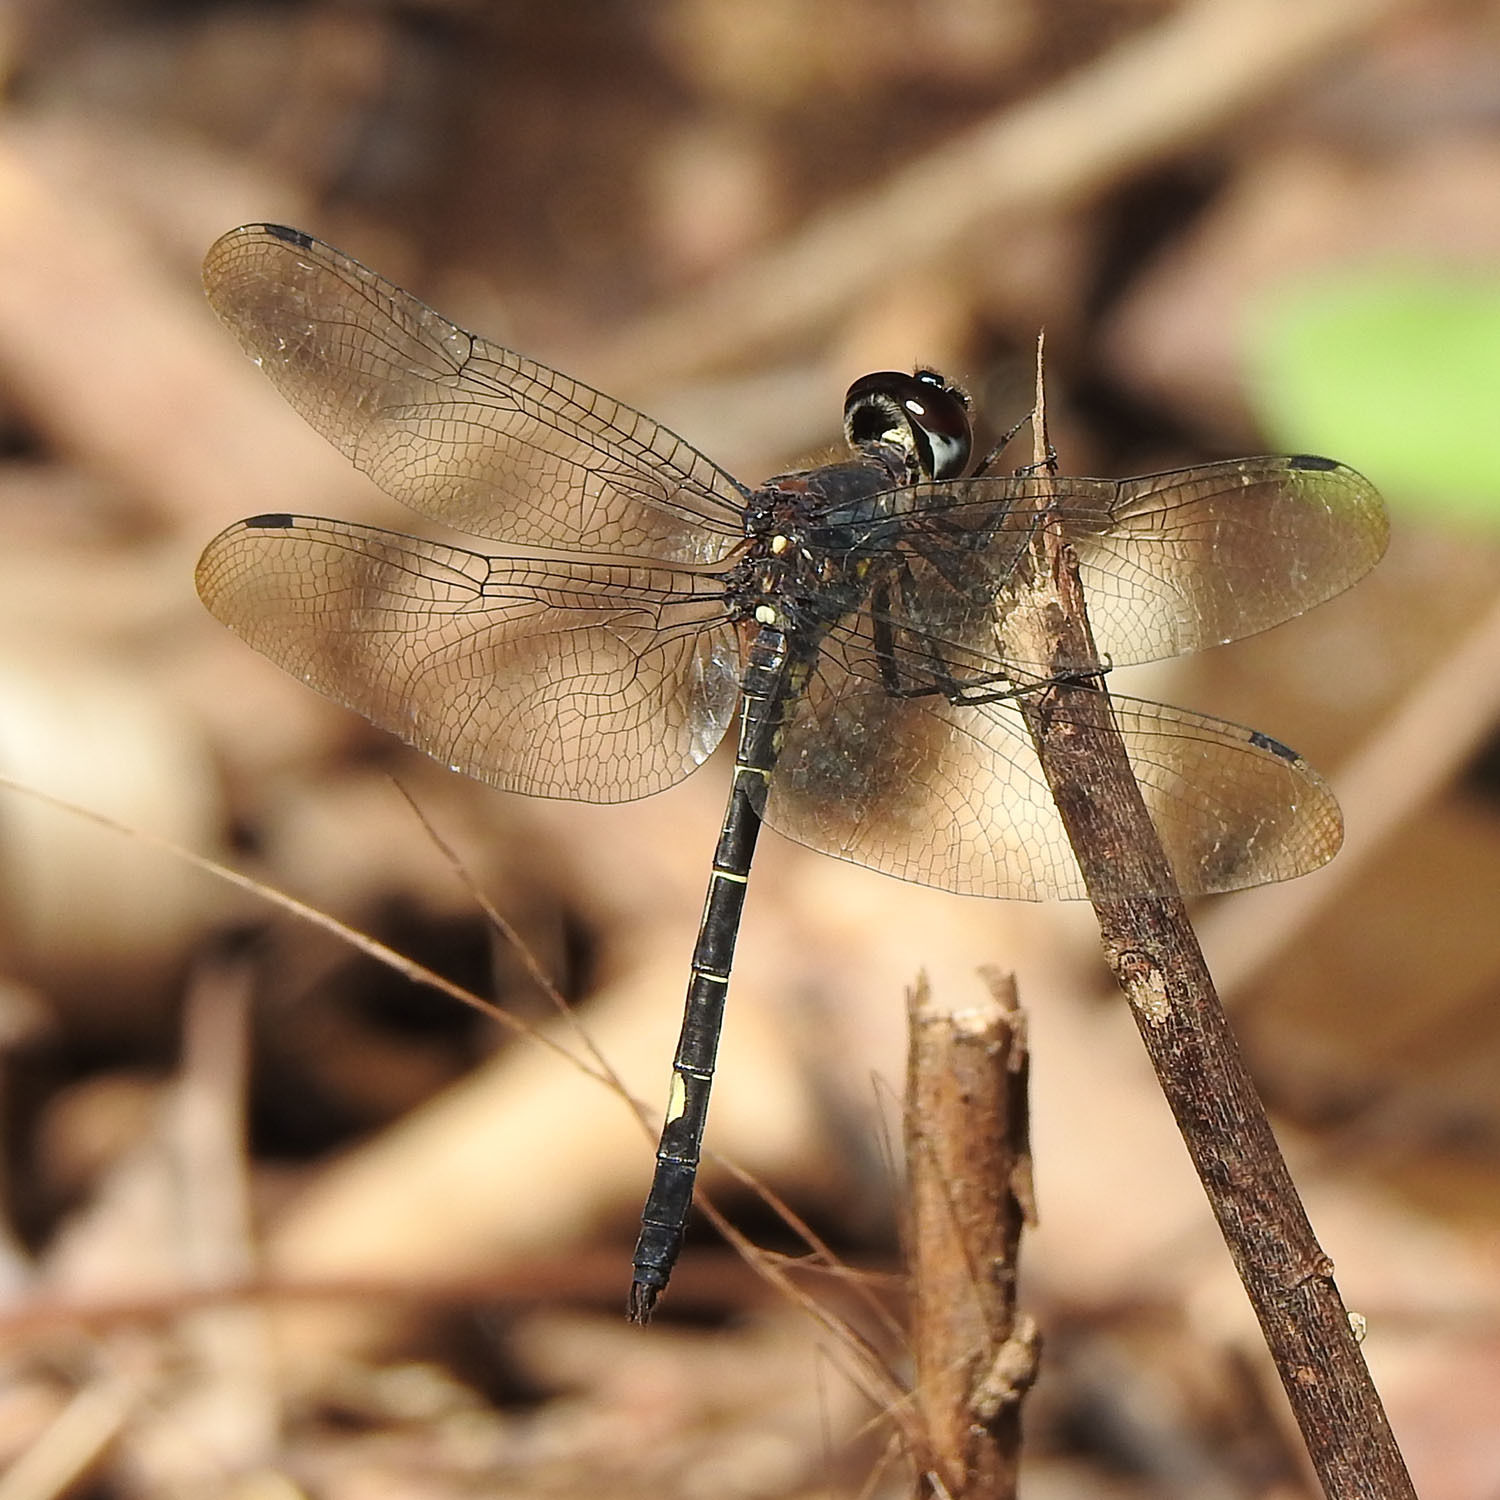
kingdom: Animalia
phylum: Arthropoda
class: Insecta
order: Odonata
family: Libellulidae
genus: Zygonyx
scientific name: Zygonyx iris
